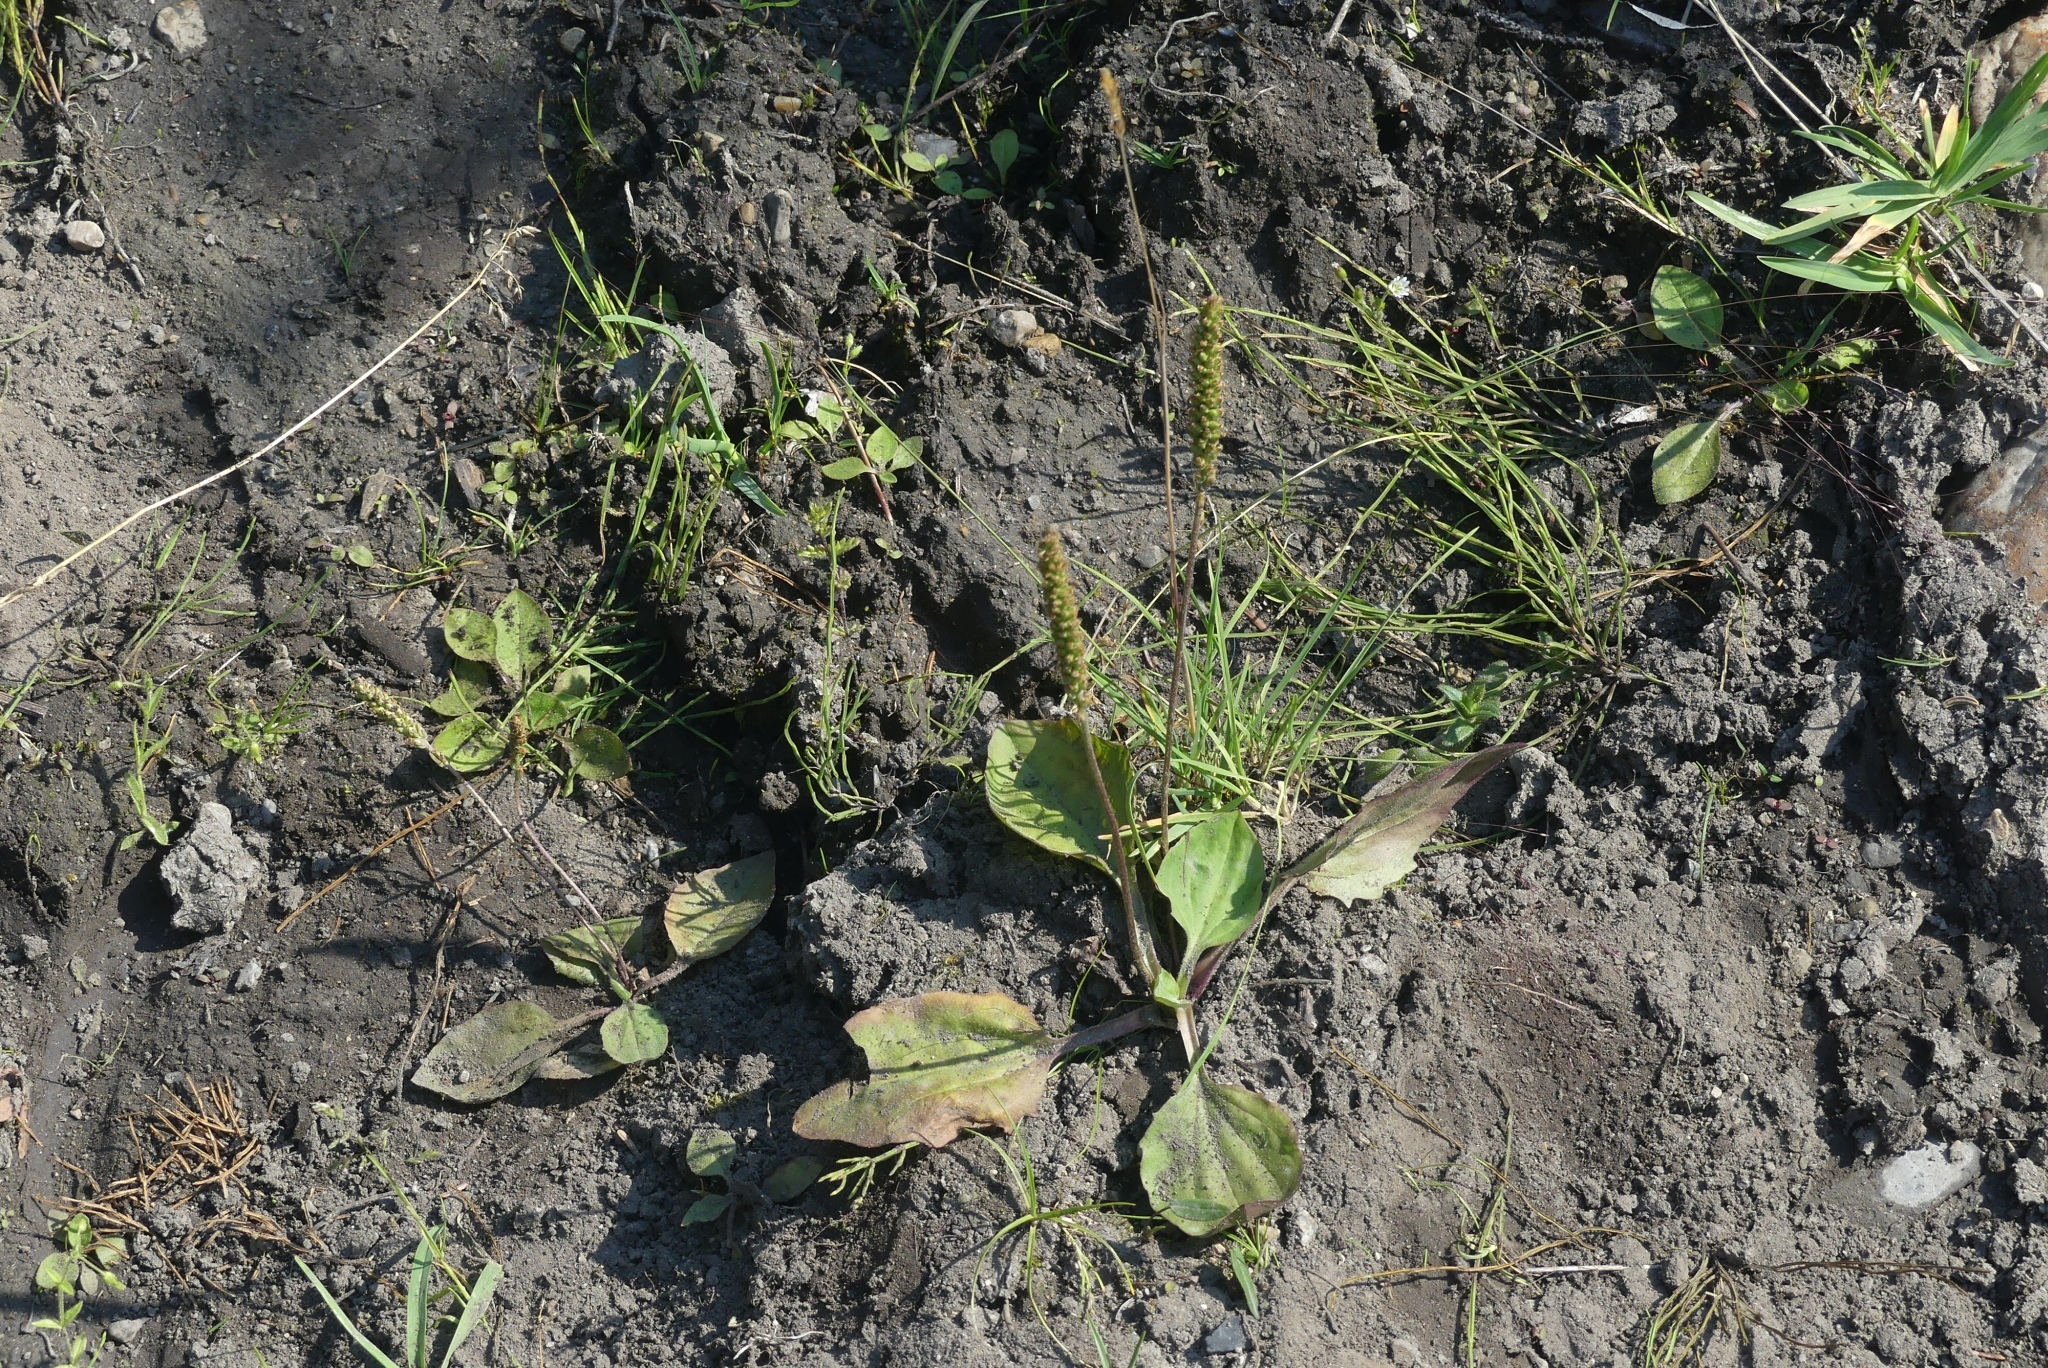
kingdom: Plantae
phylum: Tracheophyta
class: Magnoliopsida
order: Lamiales
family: Plantaginaceae
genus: Plantago
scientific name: Plantago major
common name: Common plantain
